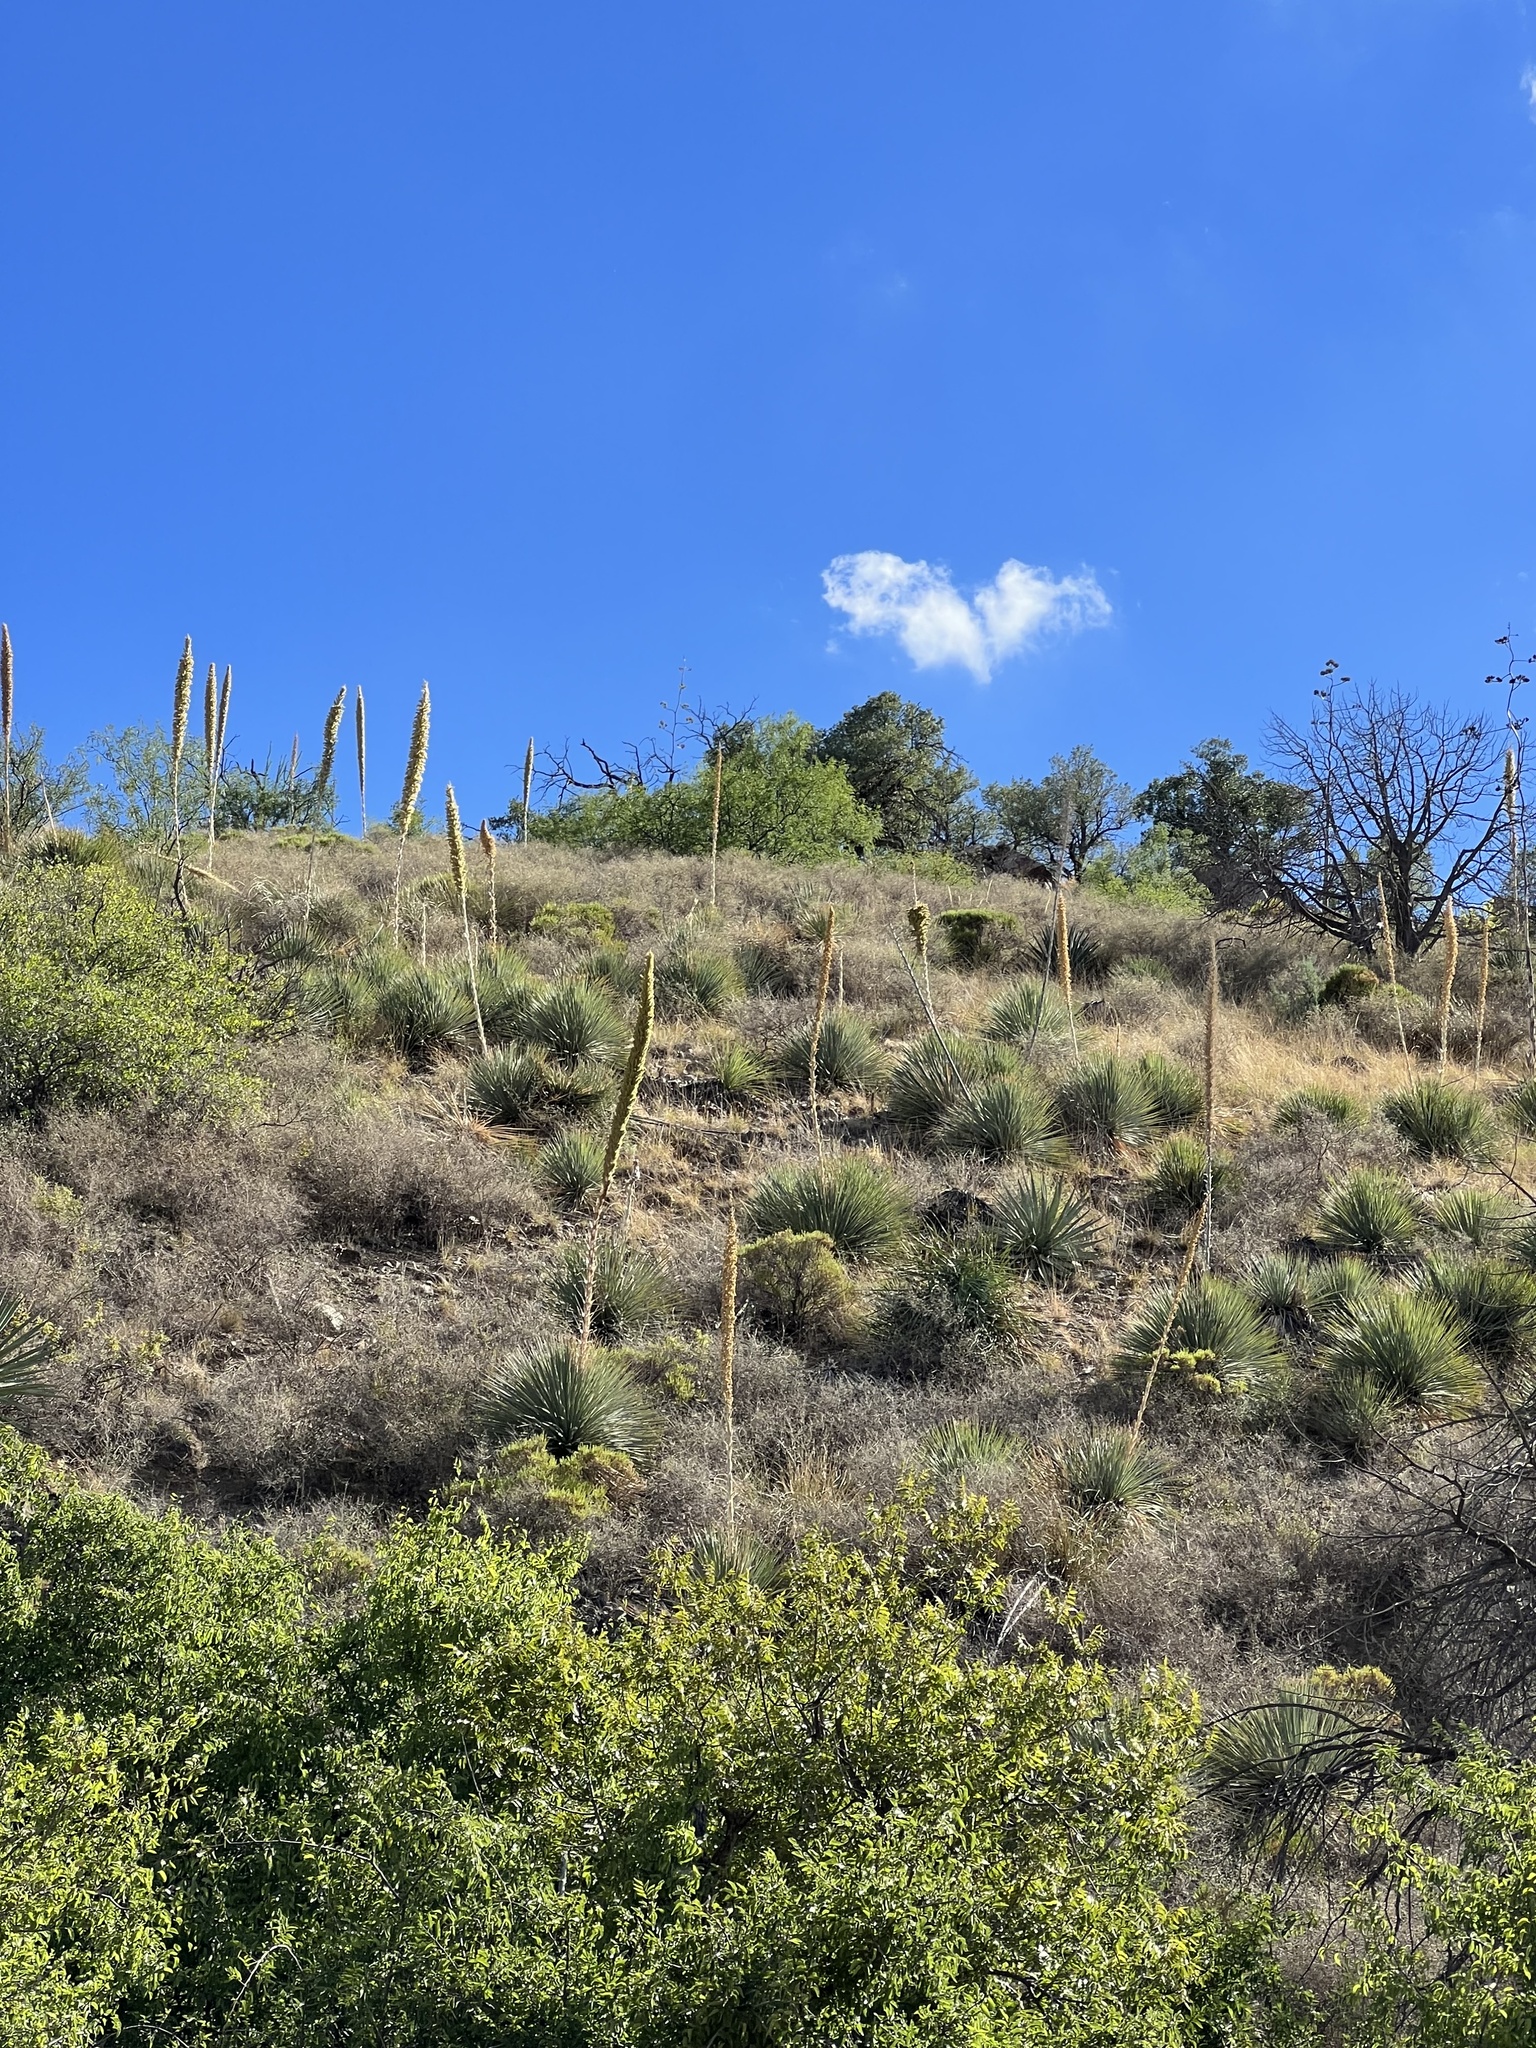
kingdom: Plantae
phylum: Tracheophyta
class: Liliopsida
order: Asparagales
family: Asparagaceae
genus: Dasylirion
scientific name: Dasylirion wheeleri
